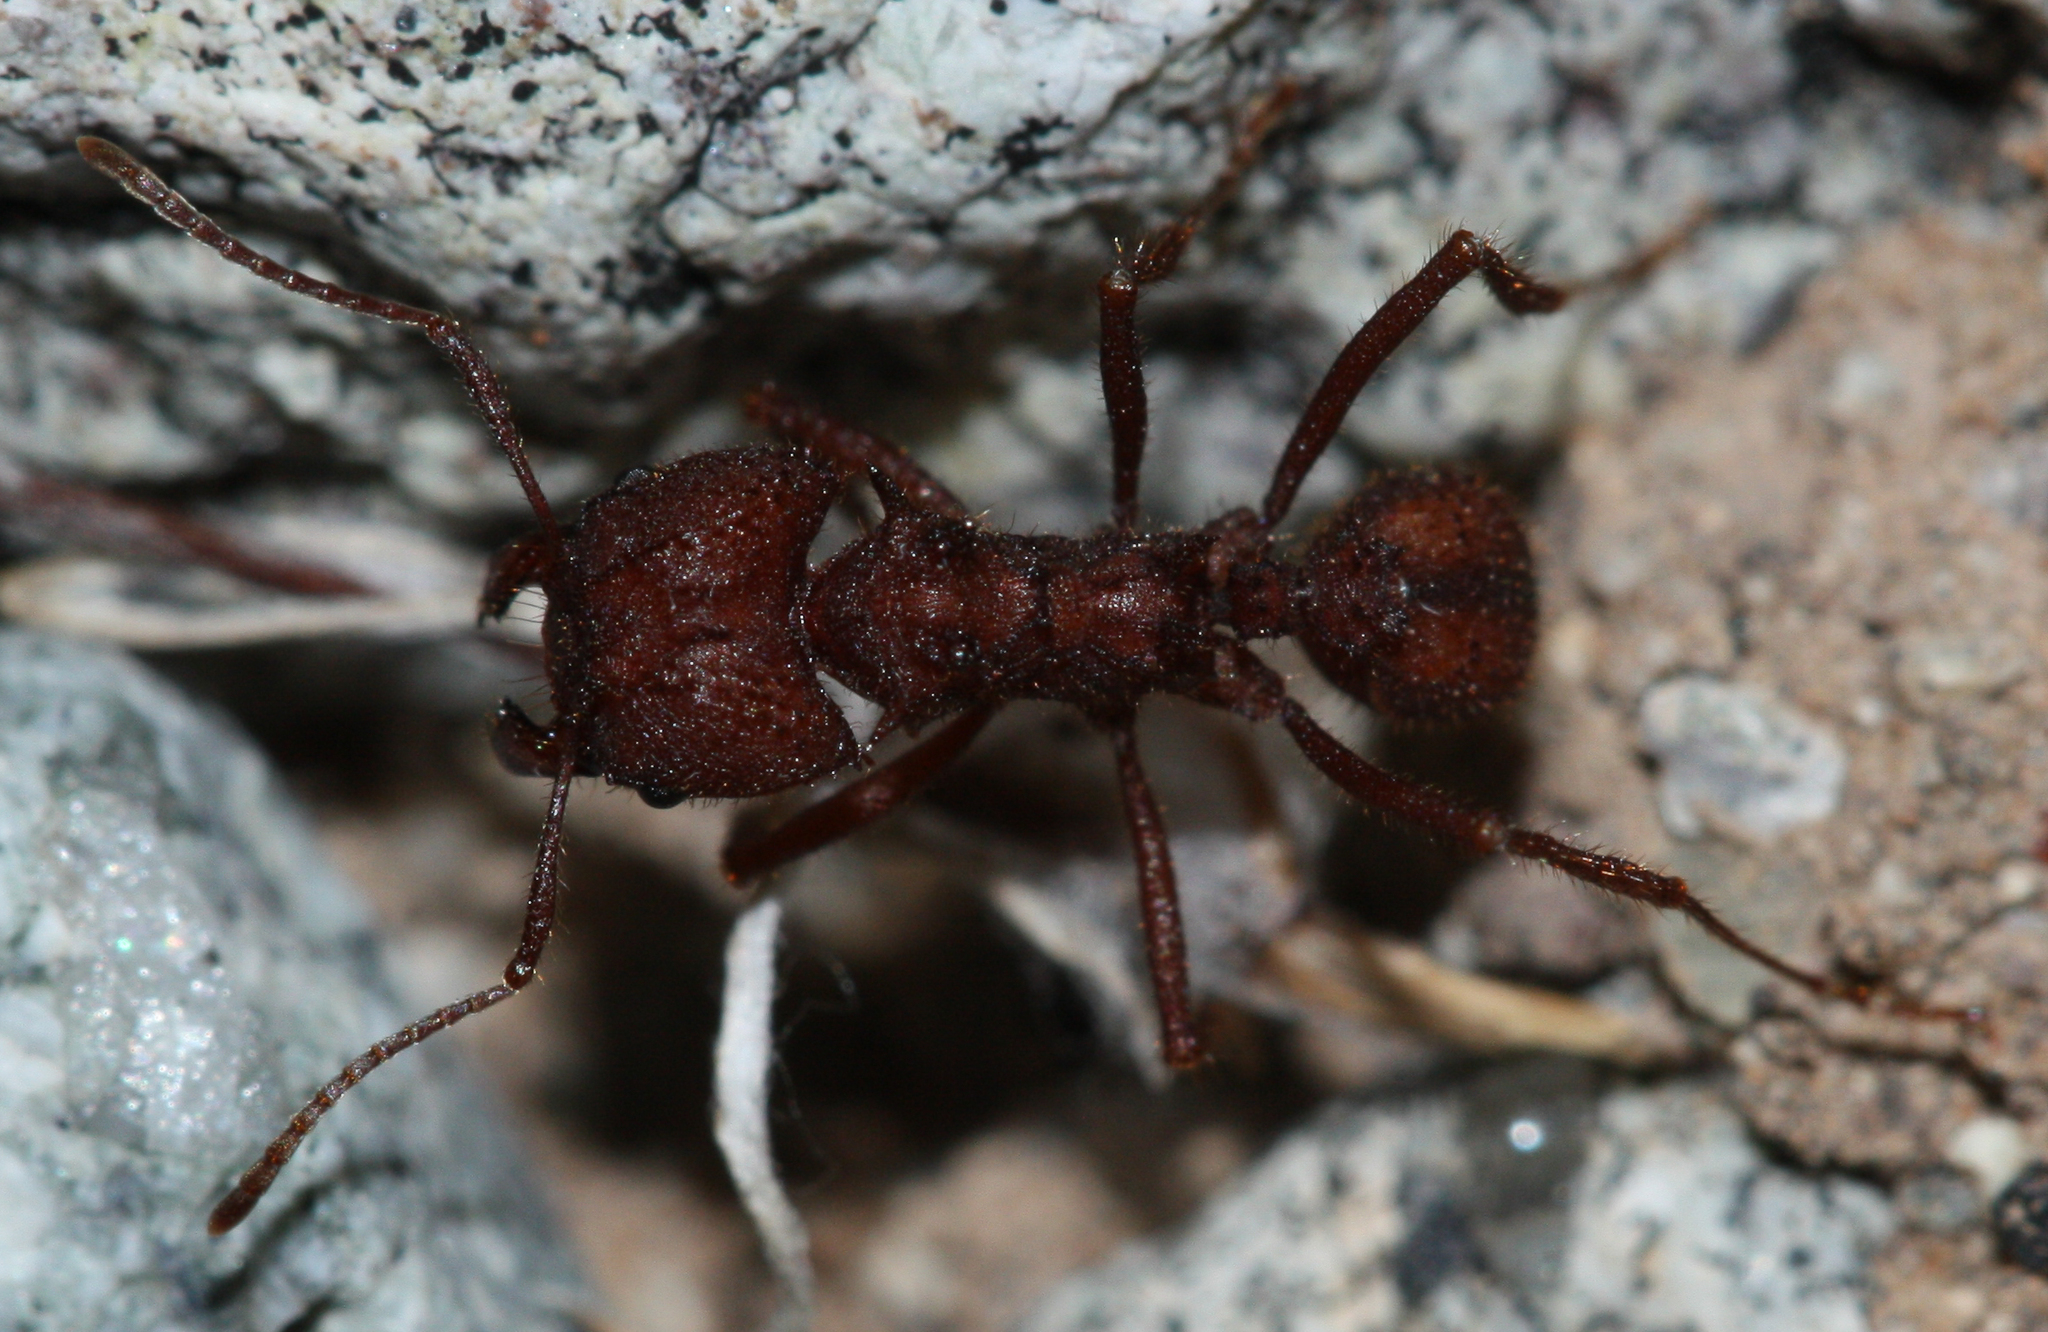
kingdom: Animalia
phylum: Arthropoda
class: Insecta
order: Hymenoptera
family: Formicidae
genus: Acromyrmex
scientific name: Acromyrmex versicolor
